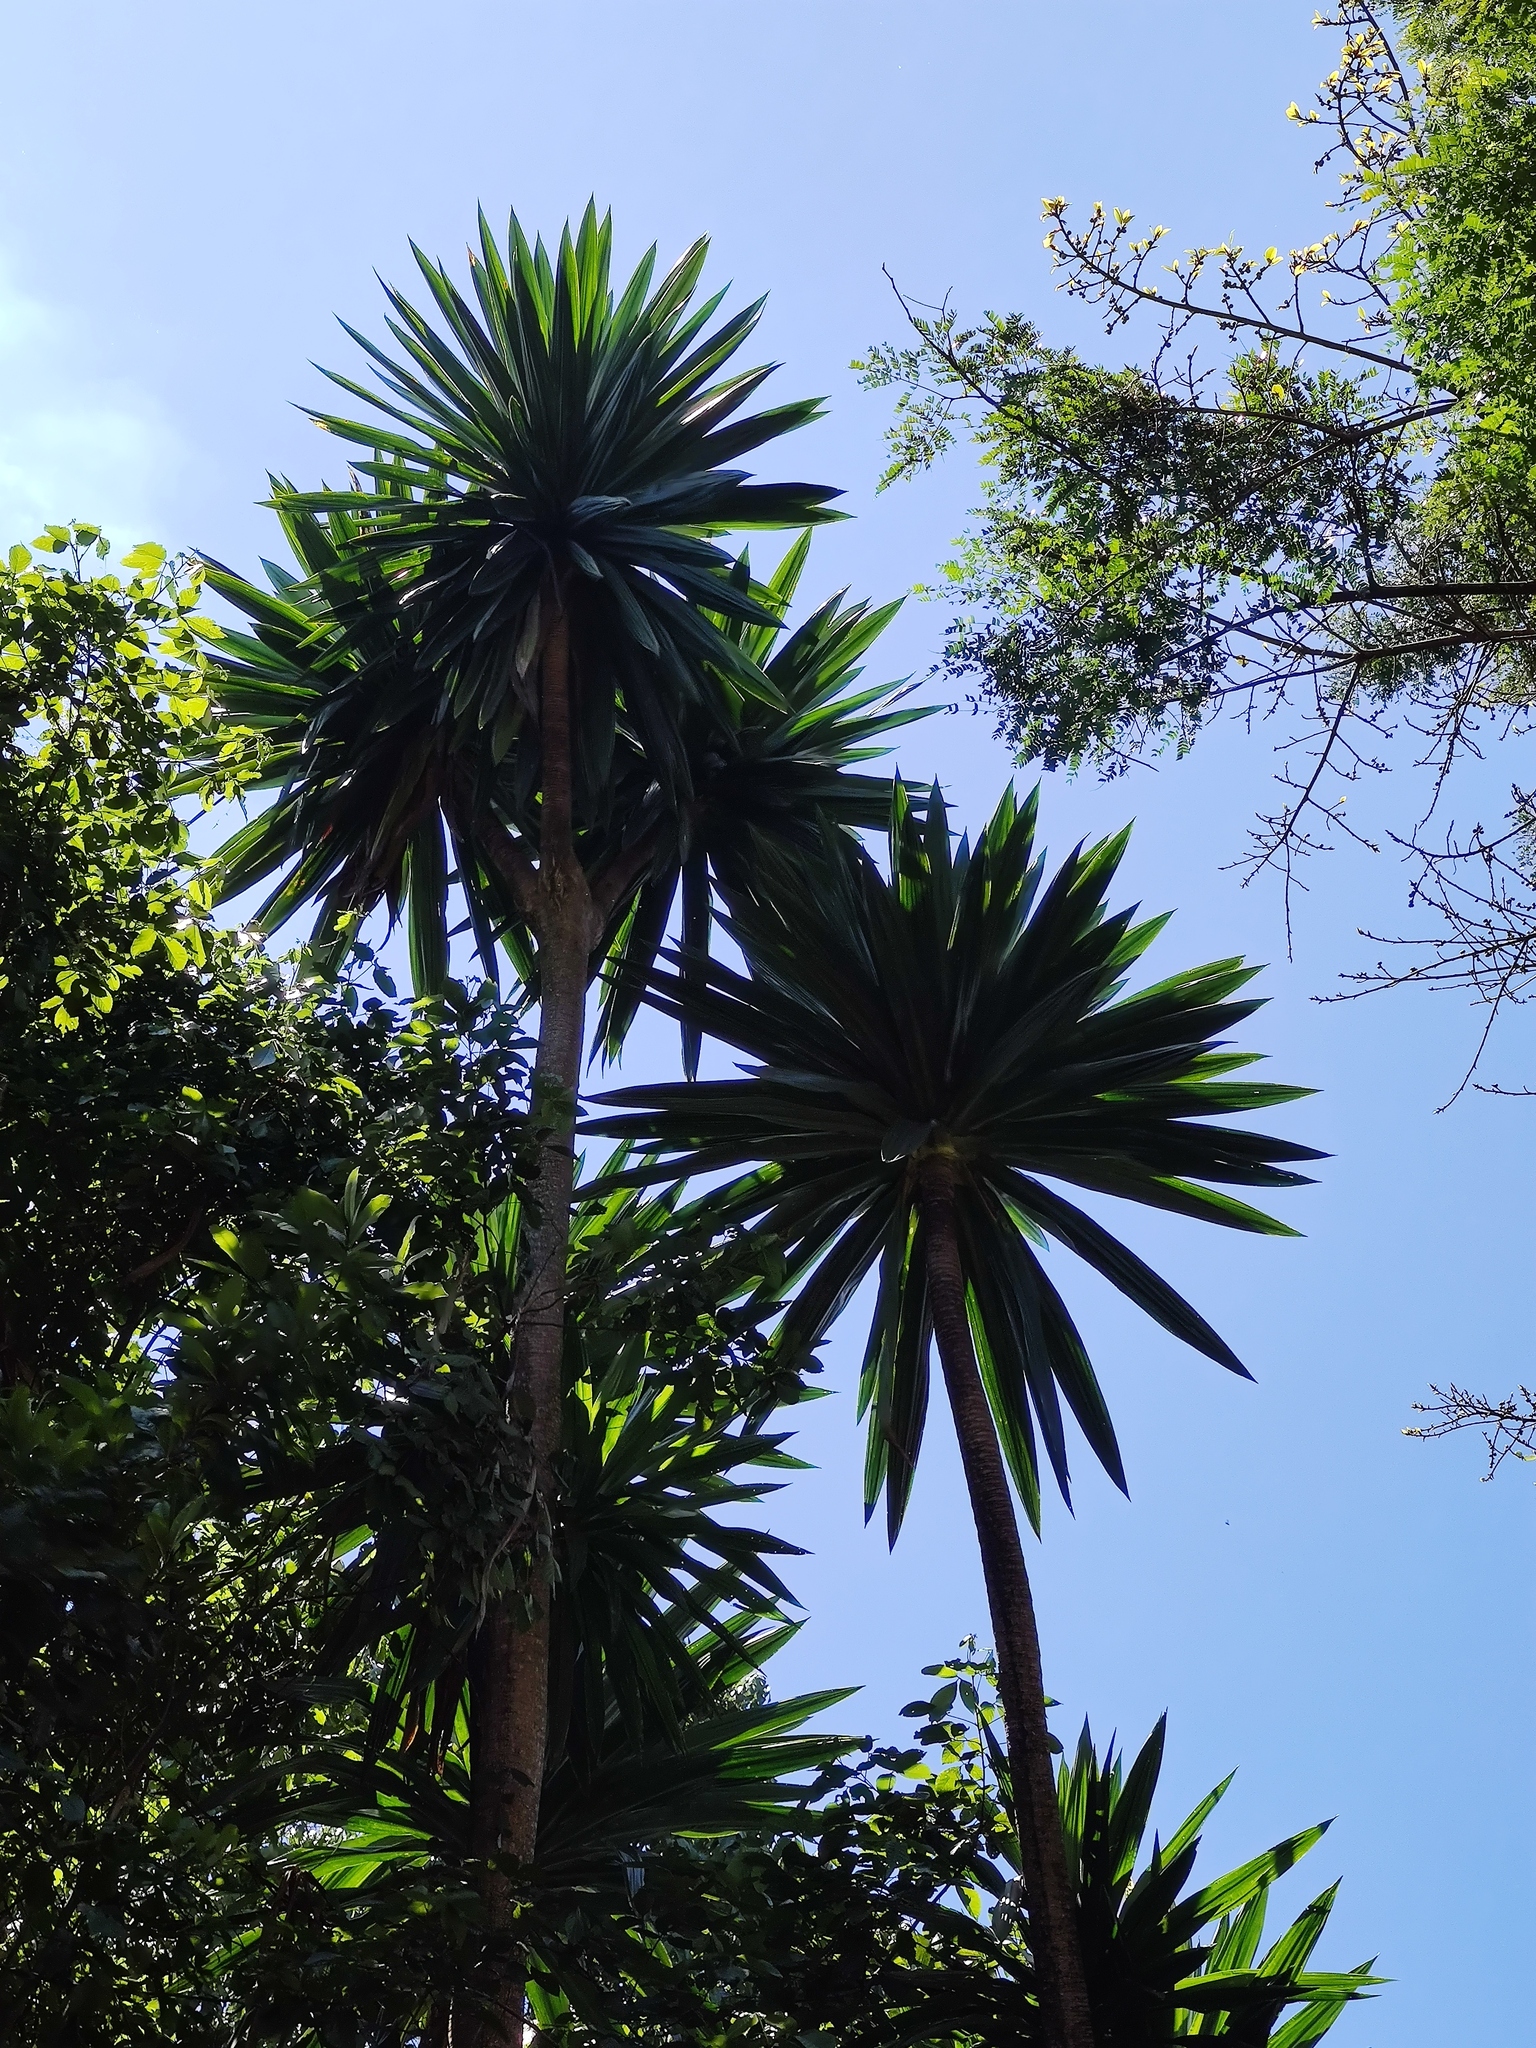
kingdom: Plantae
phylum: Tracheophyta
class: Liliopsida
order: Asparagales
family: Asparagaceae
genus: Dracaena
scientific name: Dracaena steudneri
